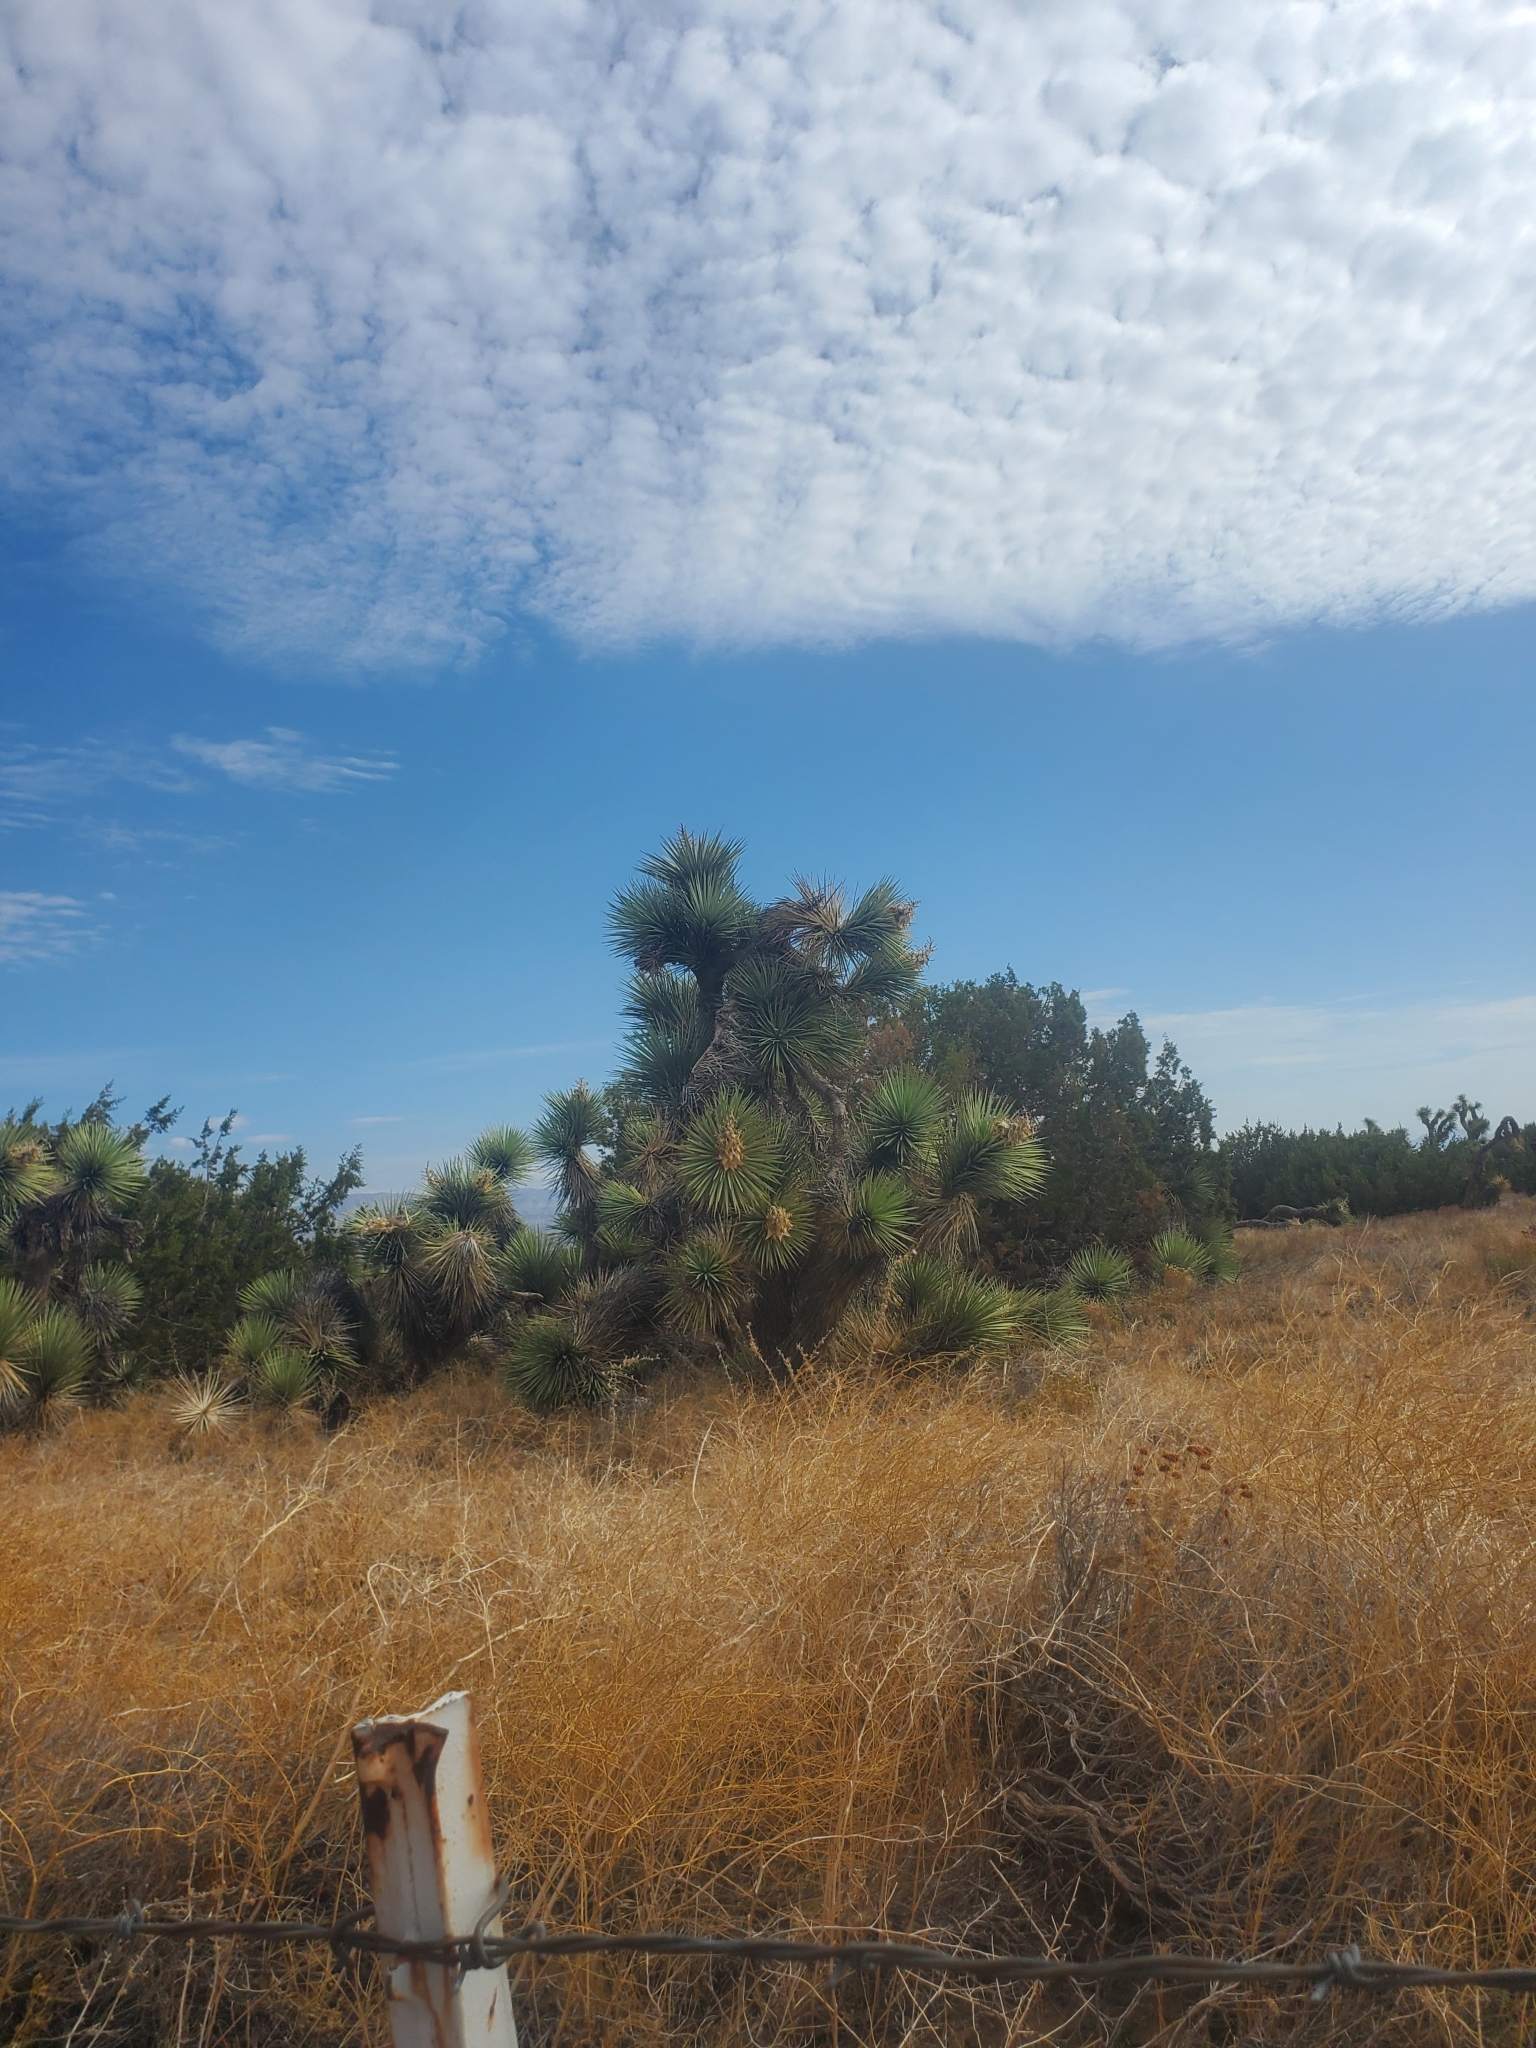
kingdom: Plantae
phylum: Tracheophyta
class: Liliopsida
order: Asparagales
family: Asparagaceae
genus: Yucca
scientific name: Yucca brevifolia
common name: Joshua tree
